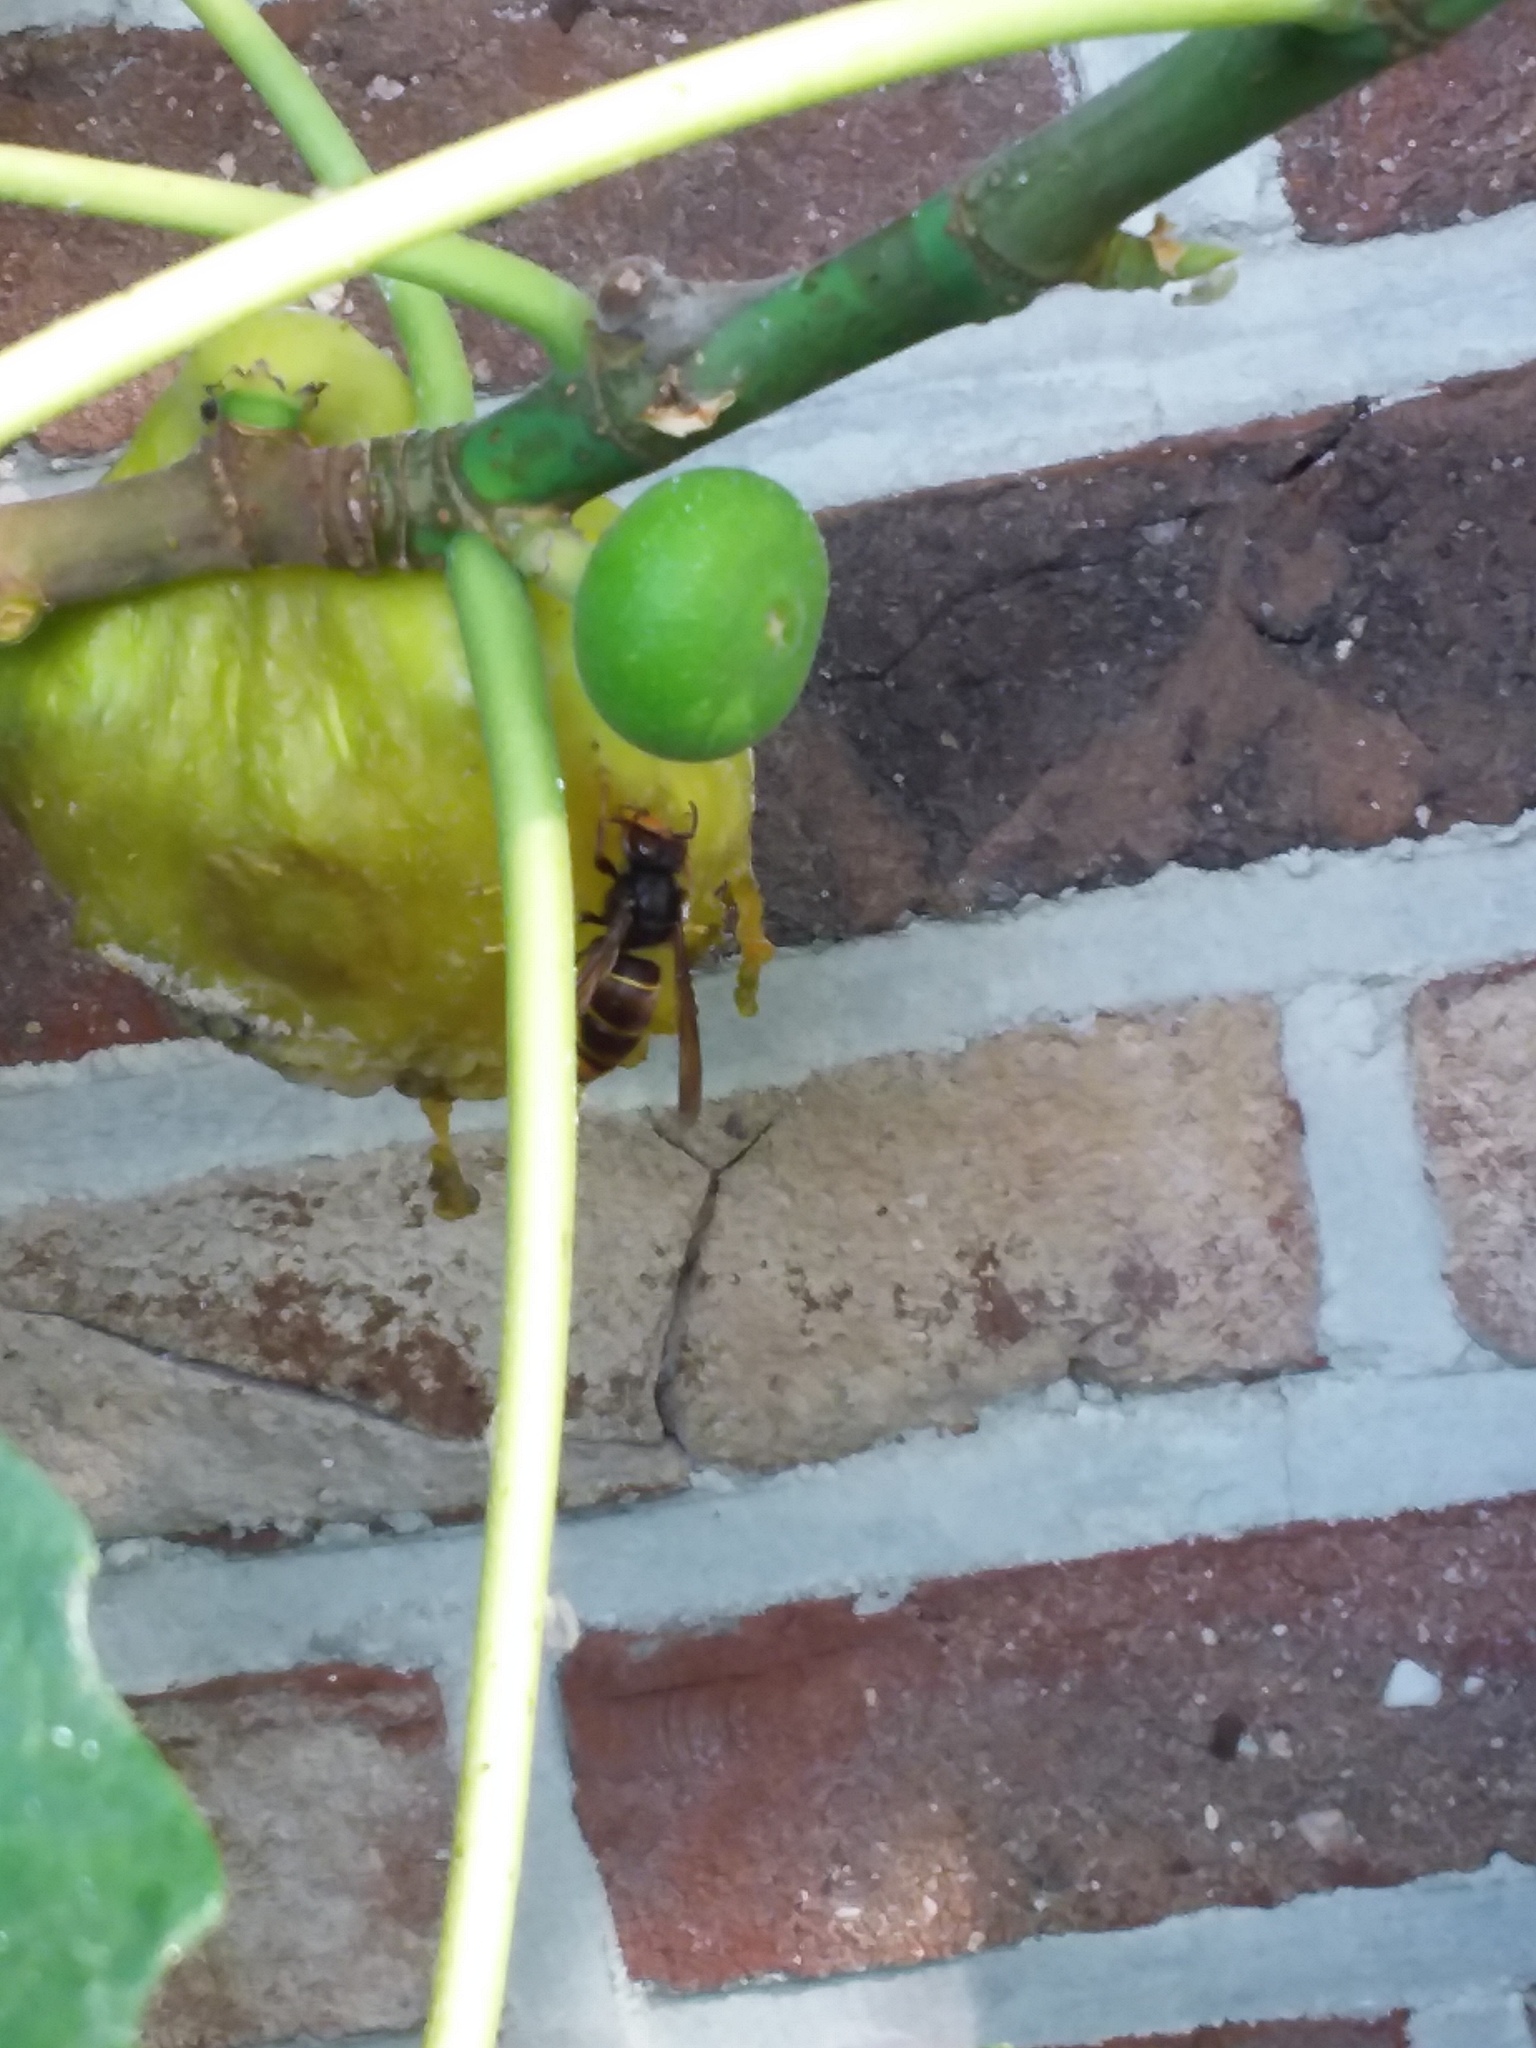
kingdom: Animalia
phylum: Arthropoda
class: Insecta
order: Hymenoptera
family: Vespidae
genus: Vespa
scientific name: Vespa velutina
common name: Asian hornet
